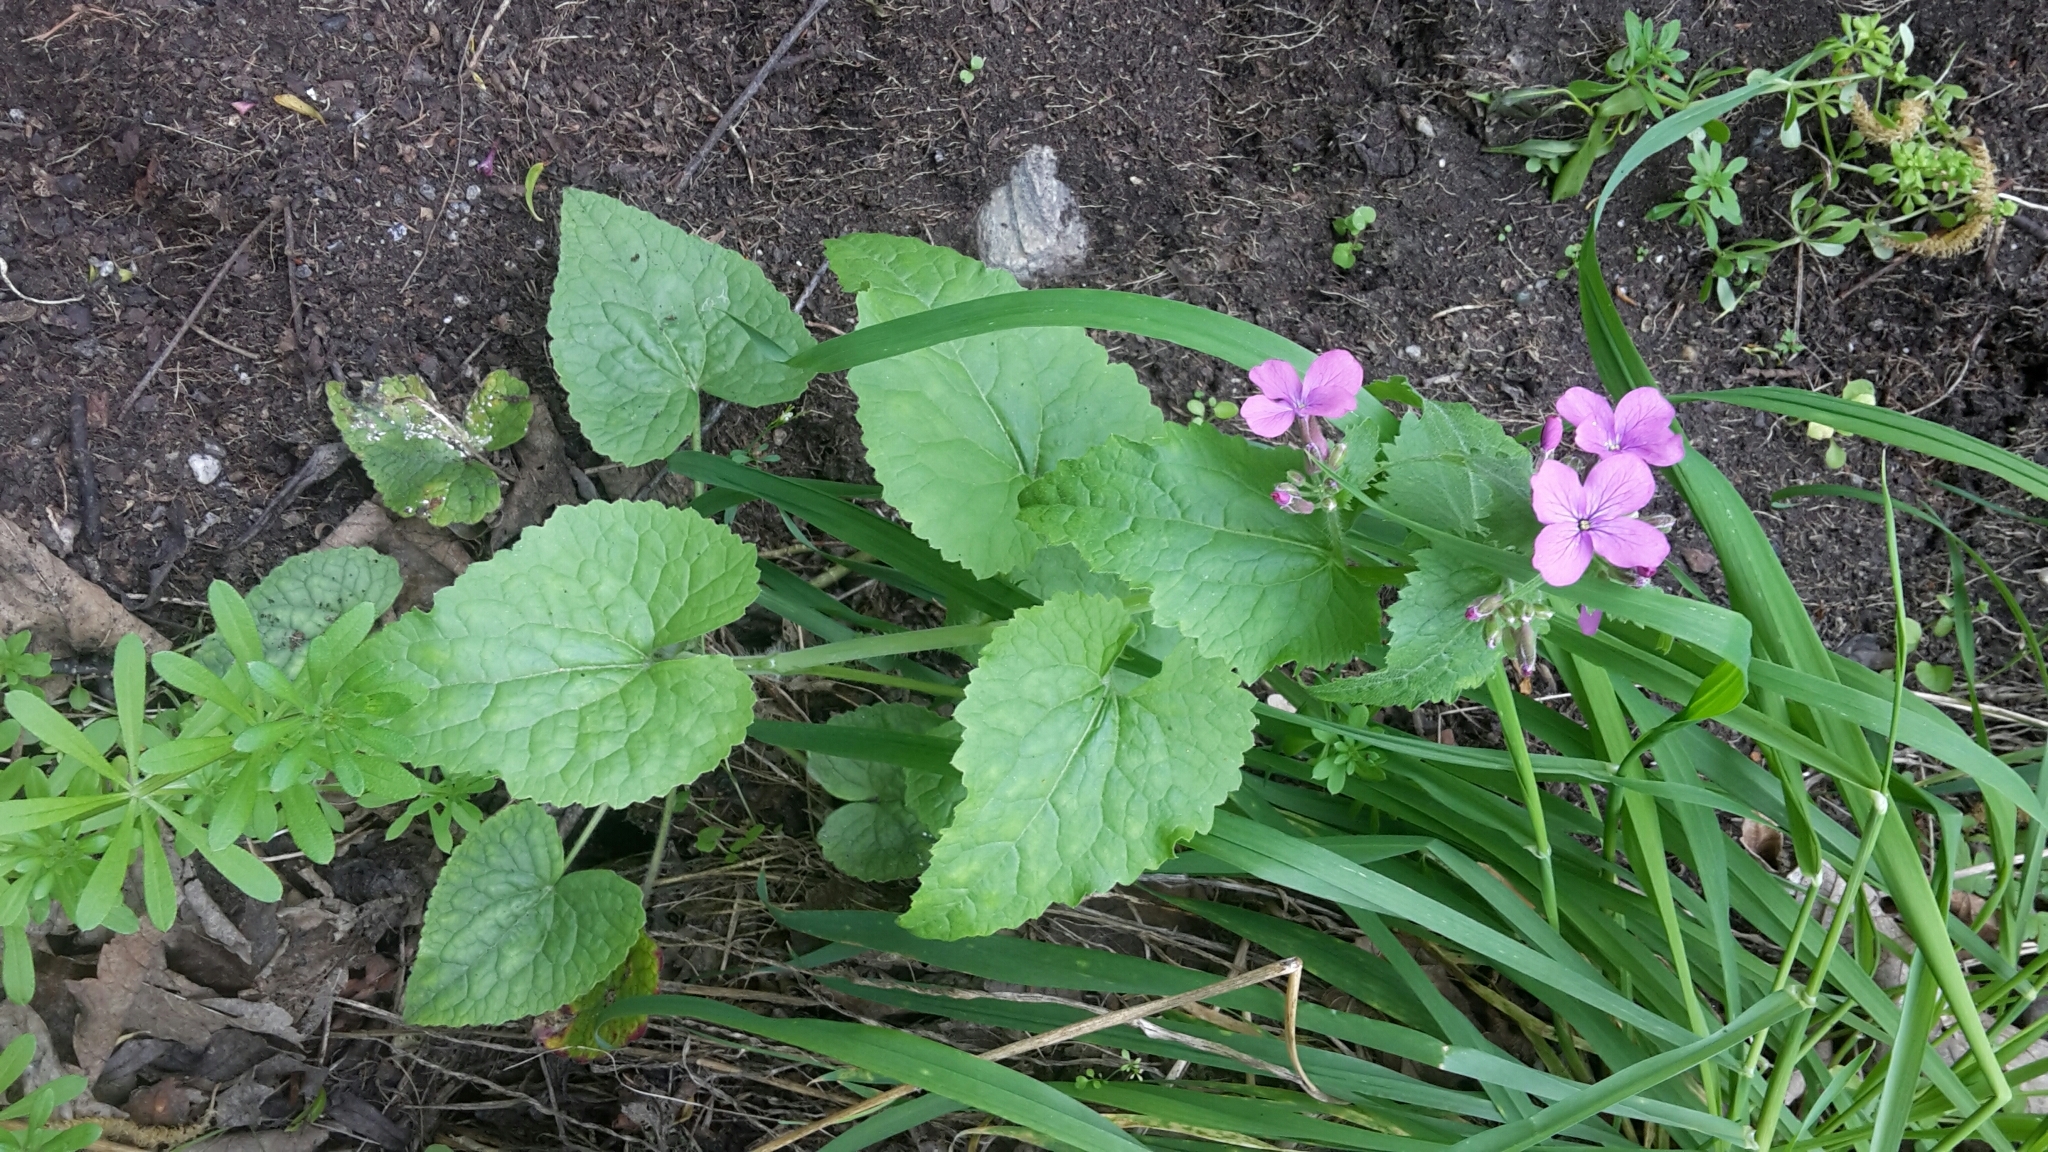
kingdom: Plantae
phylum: Tracheophyta
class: Magnoliopsida
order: Brassicales
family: Brassicaceae
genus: Lunaria
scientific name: Lunaria annua
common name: Honesty
